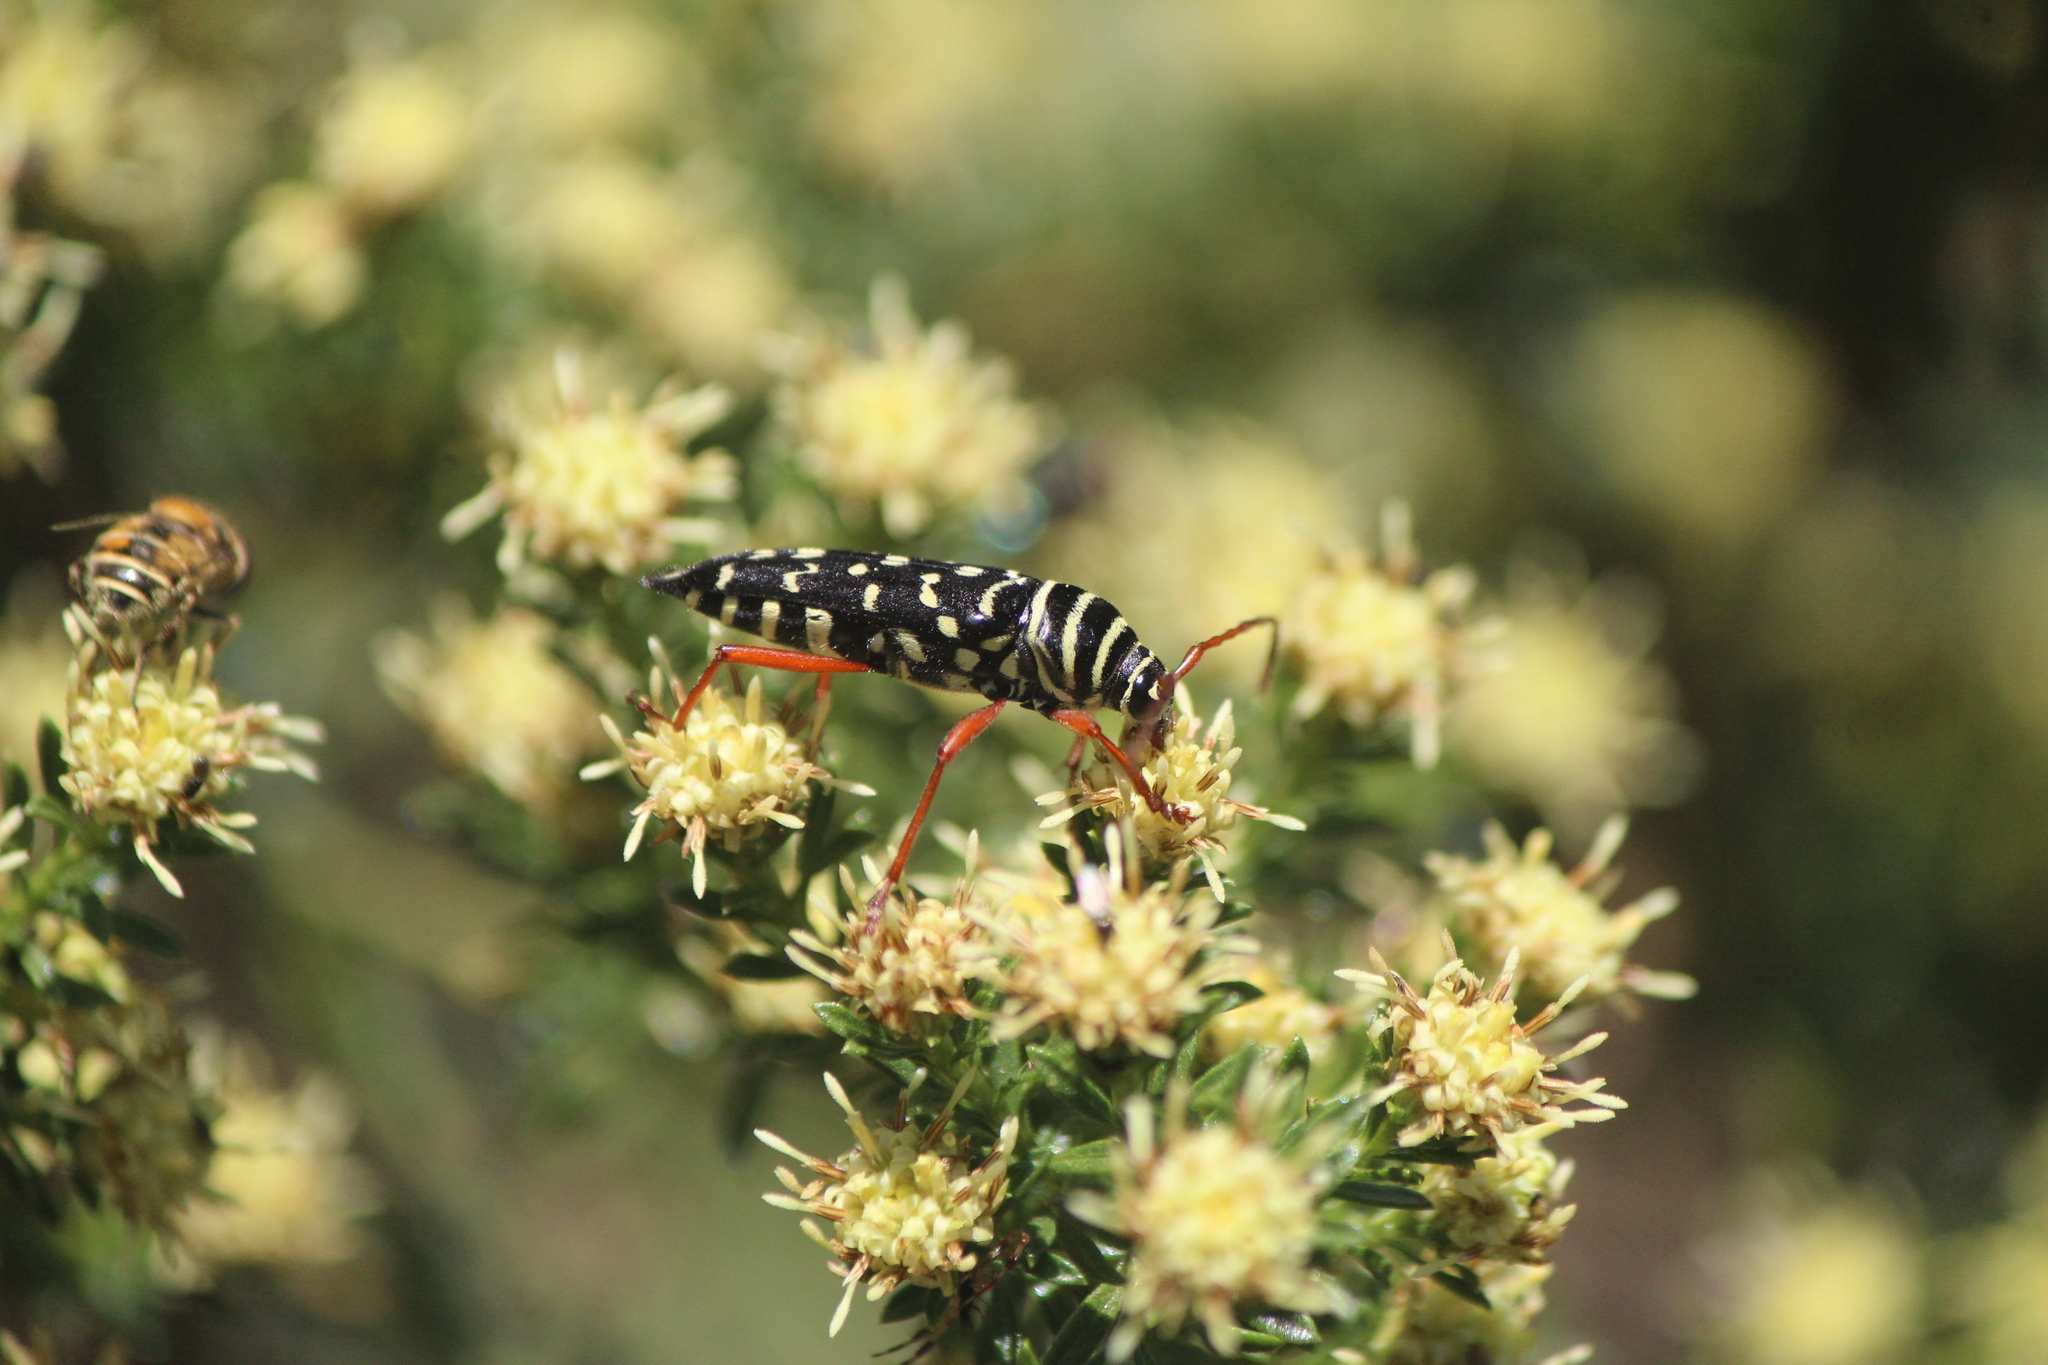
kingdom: Animalia
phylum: Arthropoda
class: Insecta
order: Coleoptera
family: Cerambycidae
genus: Placosternus
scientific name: Placosternus erythropus
